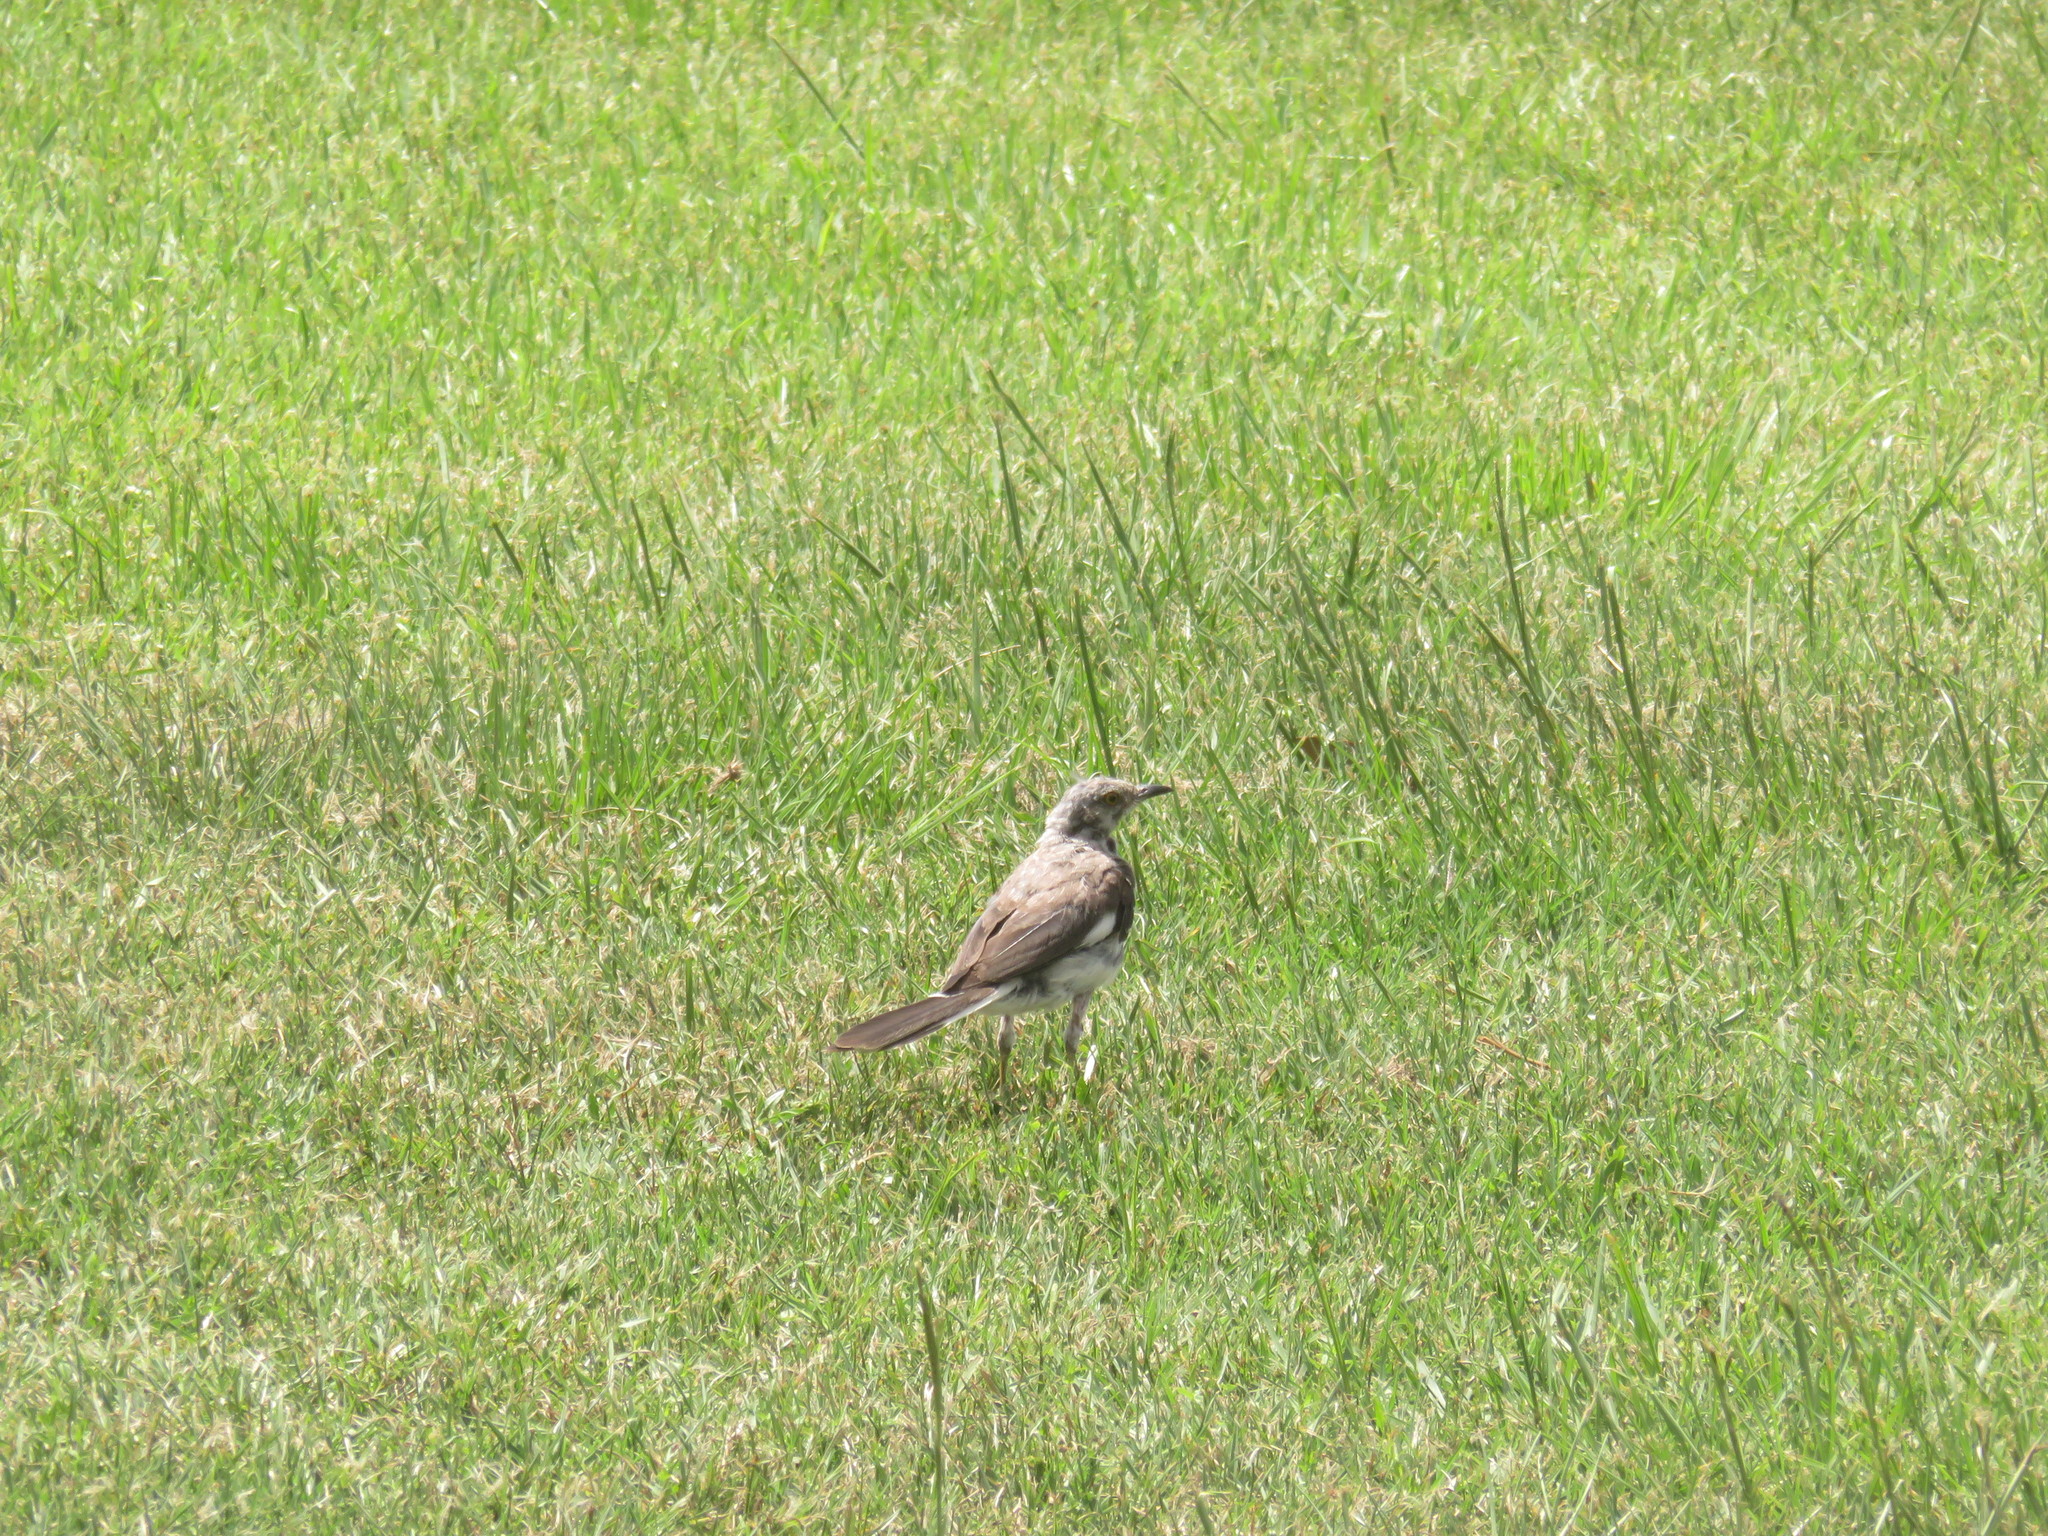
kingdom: Animalia
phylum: Chordata
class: Aves
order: Passeriformes
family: Mimidae
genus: Mimus
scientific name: Mimus polyglottos
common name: Northern mockingbird
